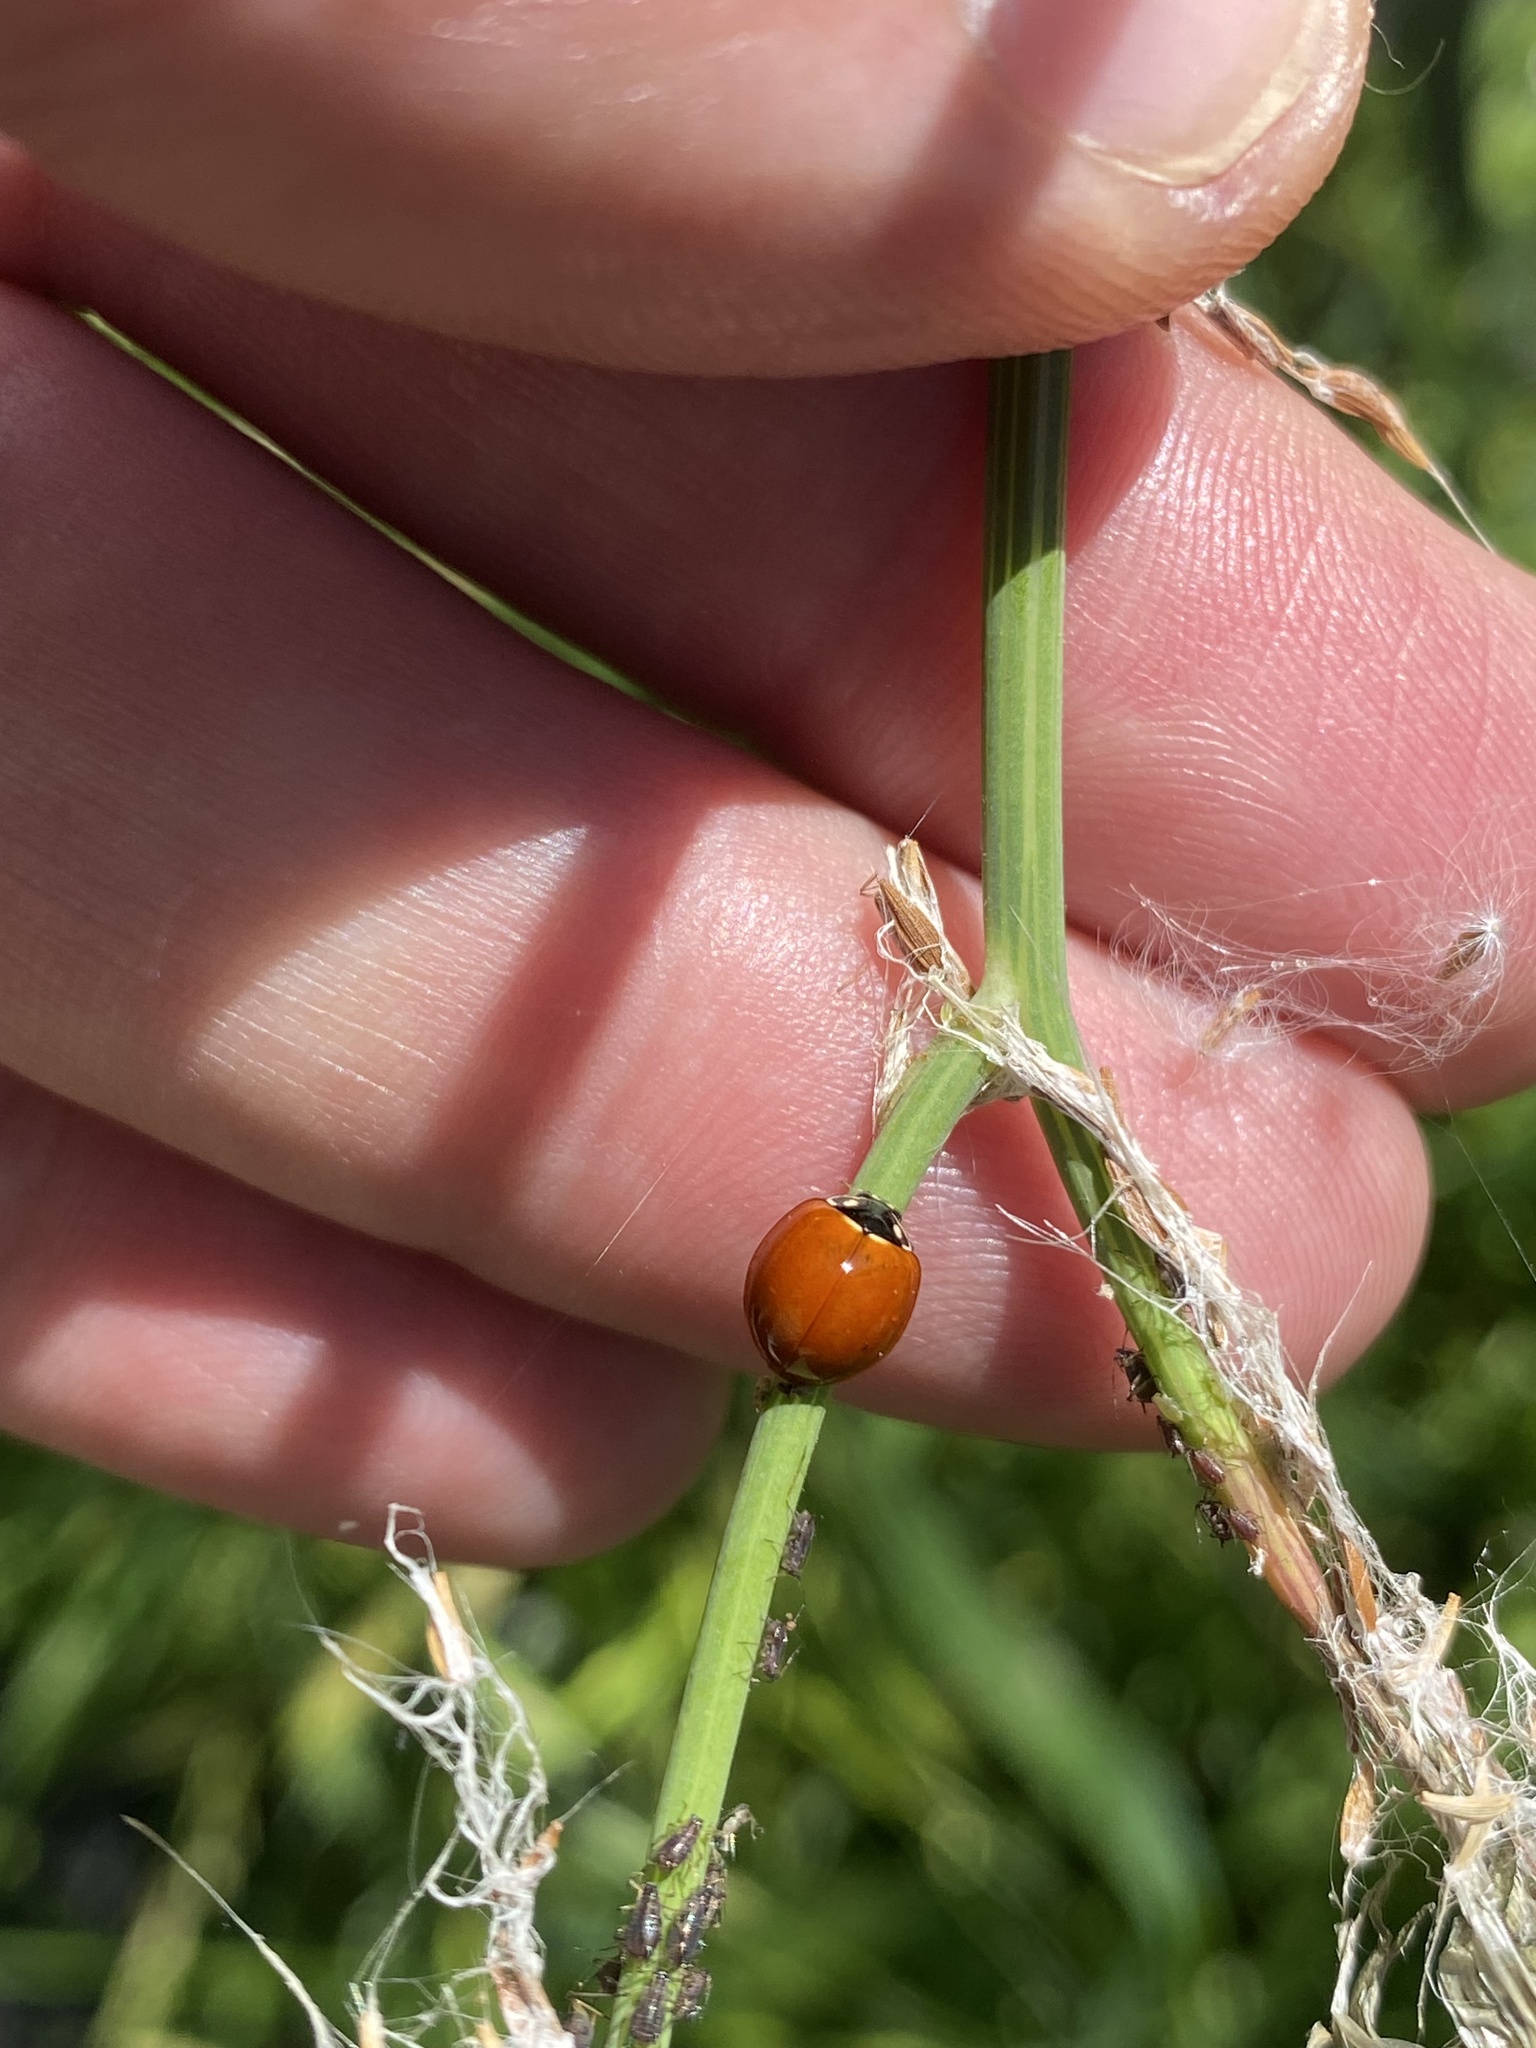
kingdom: Animalia
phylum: Arthropoda
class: Insecta
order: Coleoptera
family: Coccinellidae
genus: Cycloneda
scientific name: Cycloneda sanguinea
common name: Ladybird beetle
